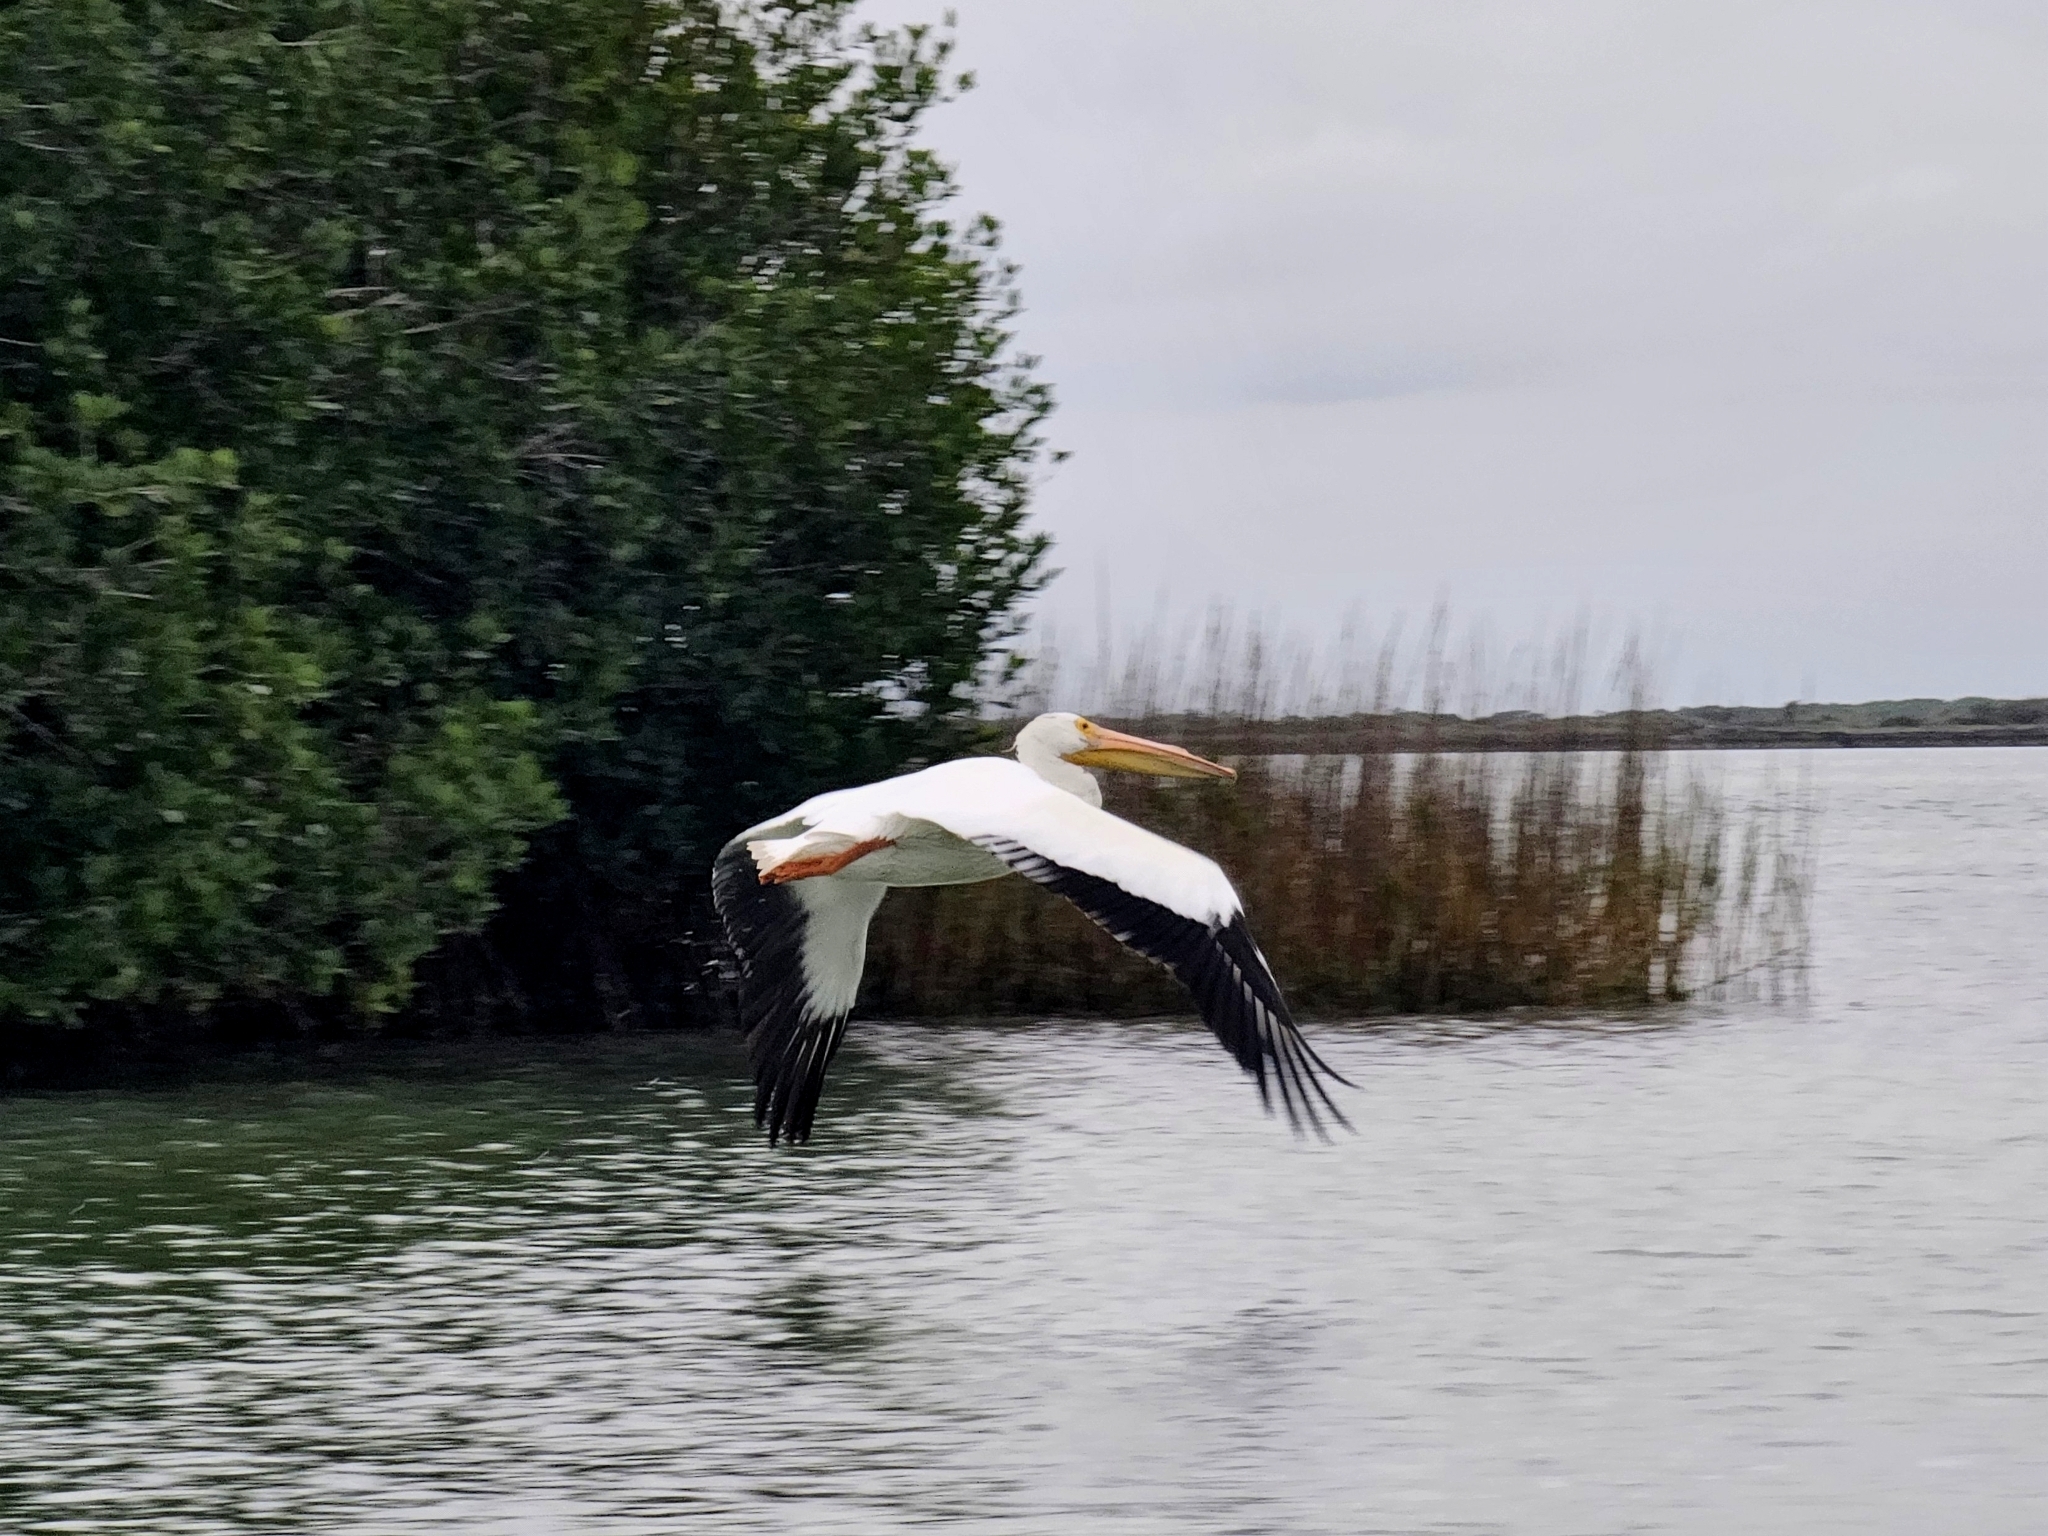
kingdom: Animalia
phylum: Chordata
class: Aves
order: Pelecaniformes
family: Pelecanidae
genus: Pelecanus
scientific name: Pelecanus erythrorhynchos
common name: American white pelican
